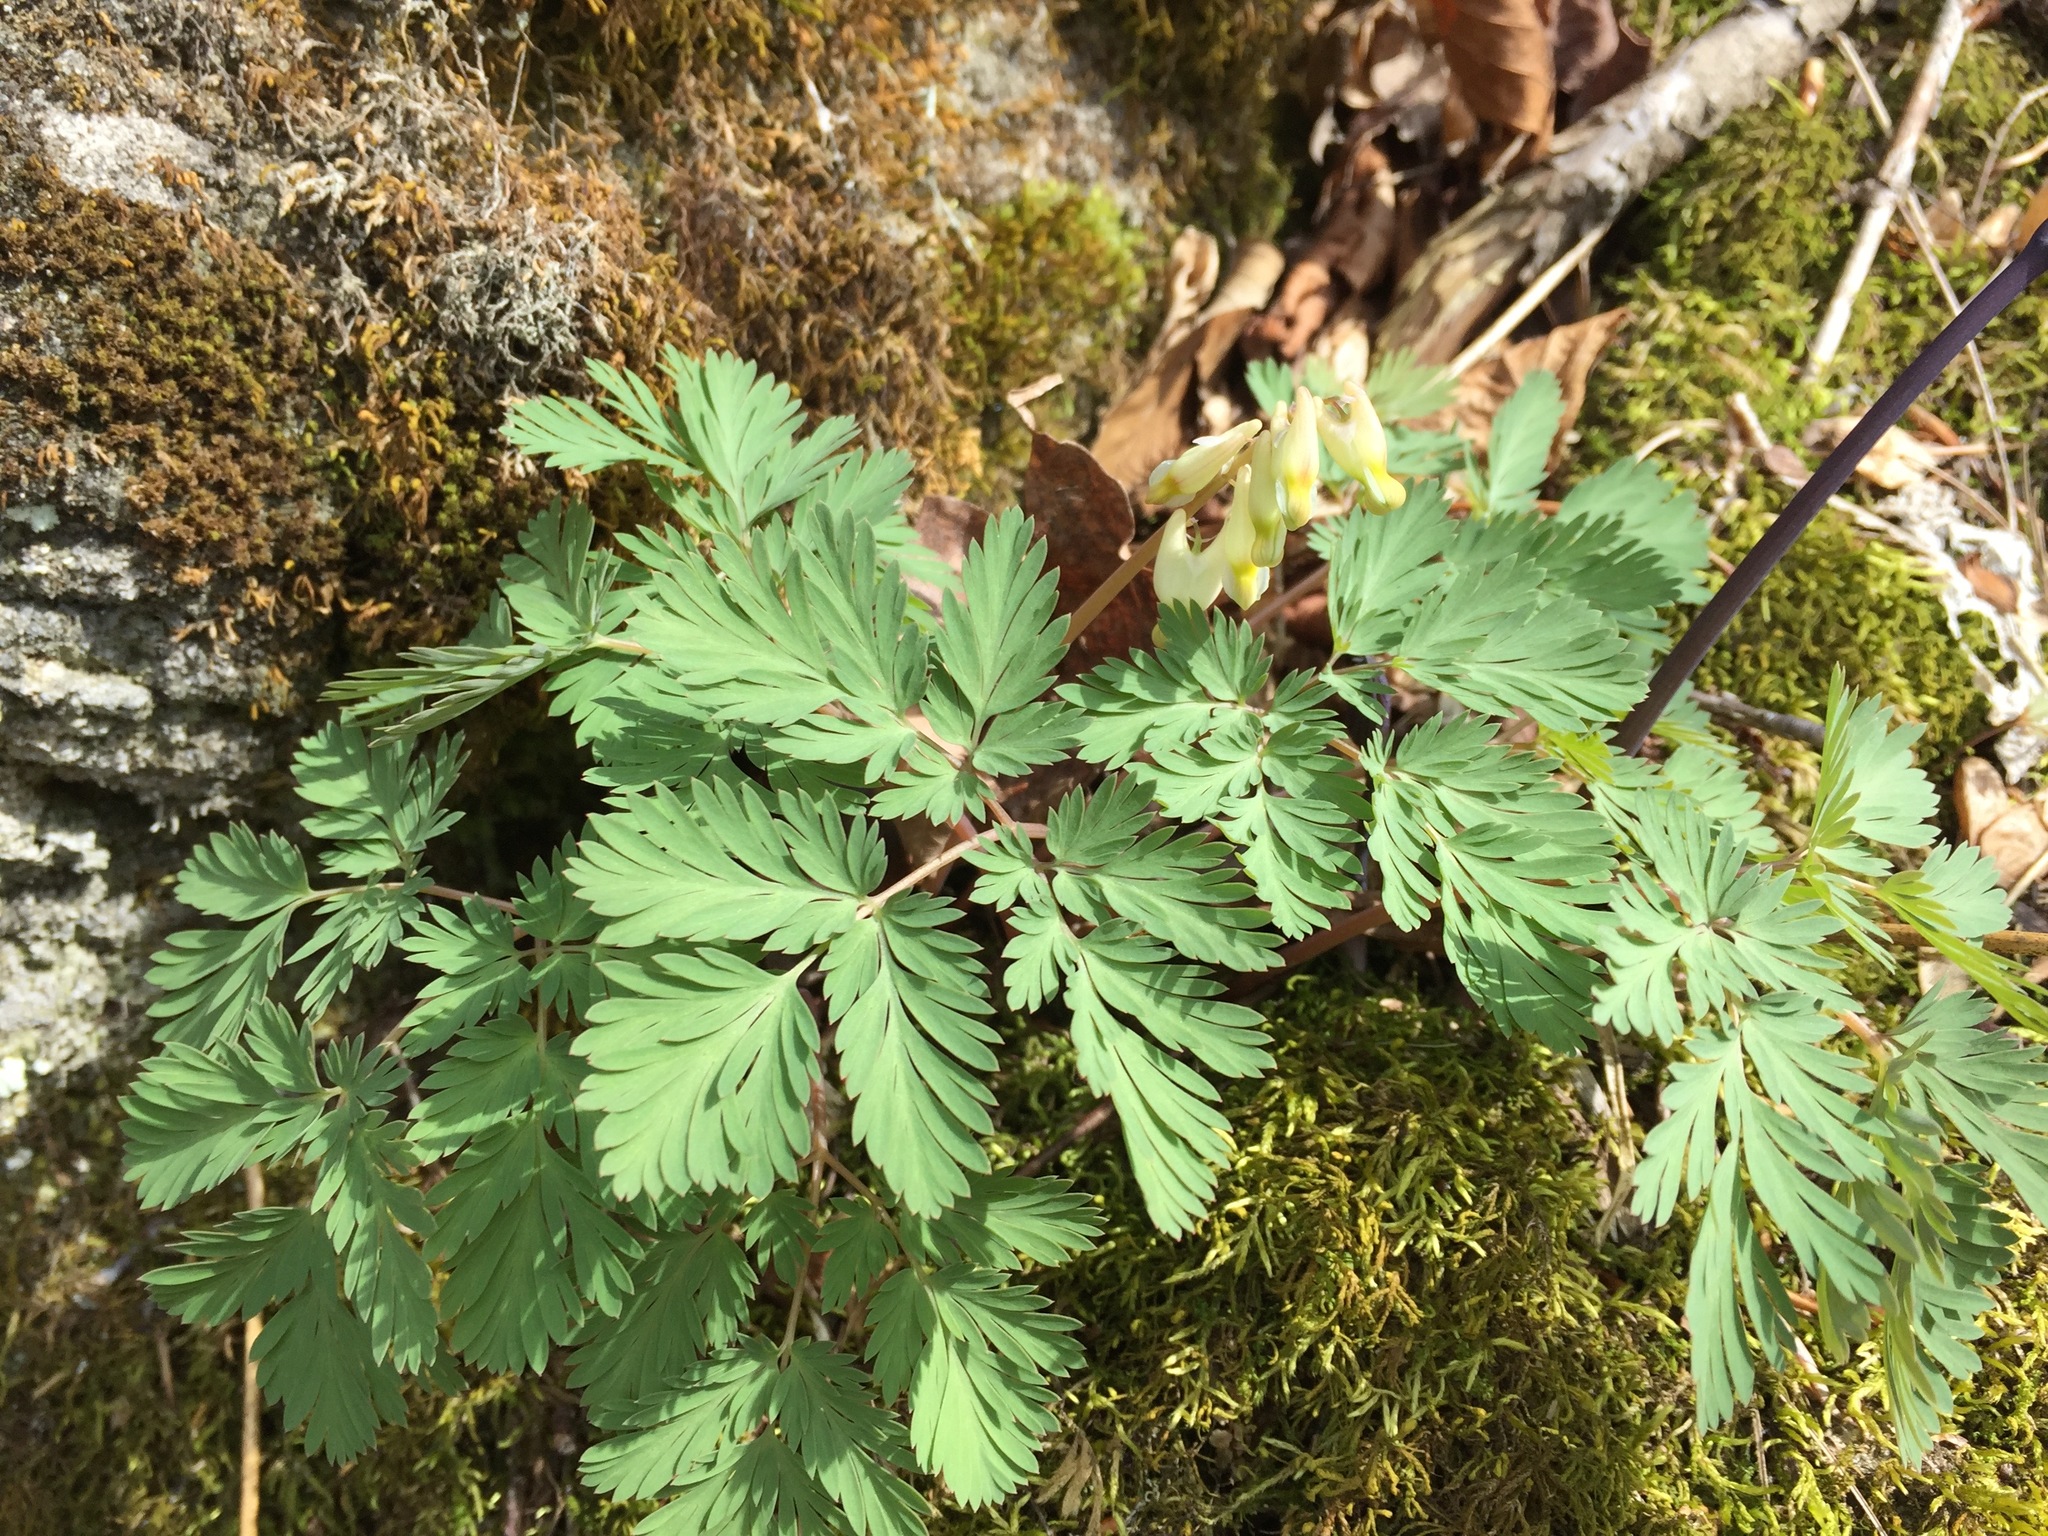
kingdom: Plantae
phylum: Tracheophyta
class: Magnoliopsida
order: Ranunculales
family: Papaveraceae
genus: Dicentra
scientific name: Dicentra cucullaria
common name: Dutchman's breeches
